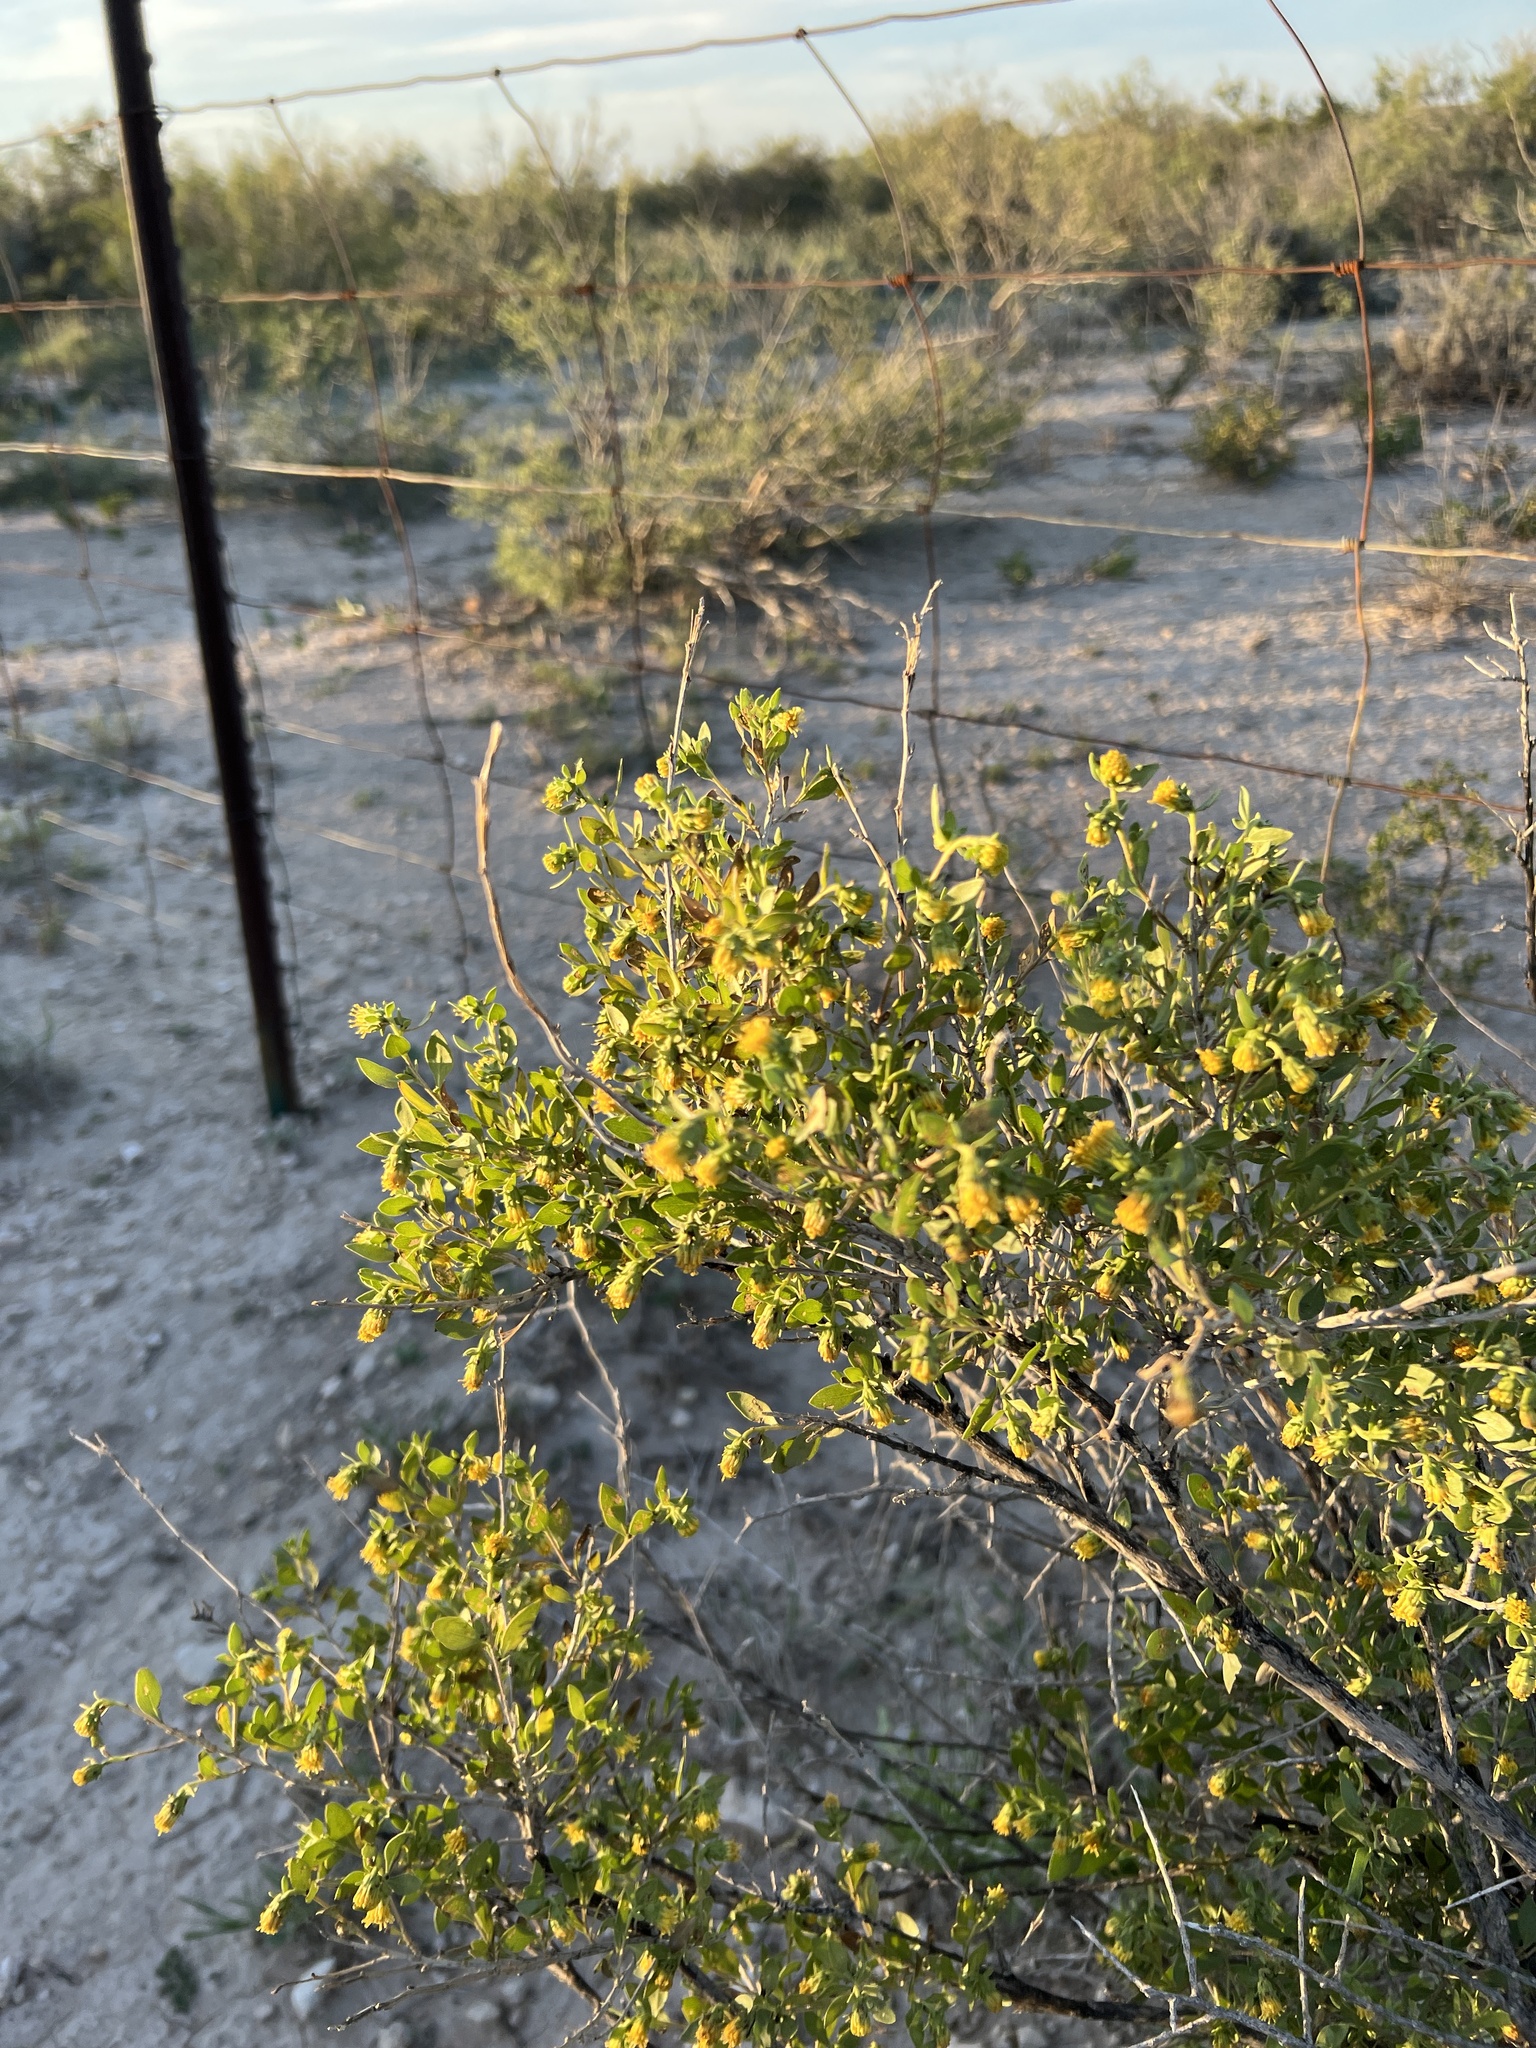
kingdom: Plantae
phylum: Tracheophyta
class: Magnoliopsida
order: Asterales
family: Asteraceae
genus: Flourensia
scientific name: Flourensia cernua
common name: Varnishbush
